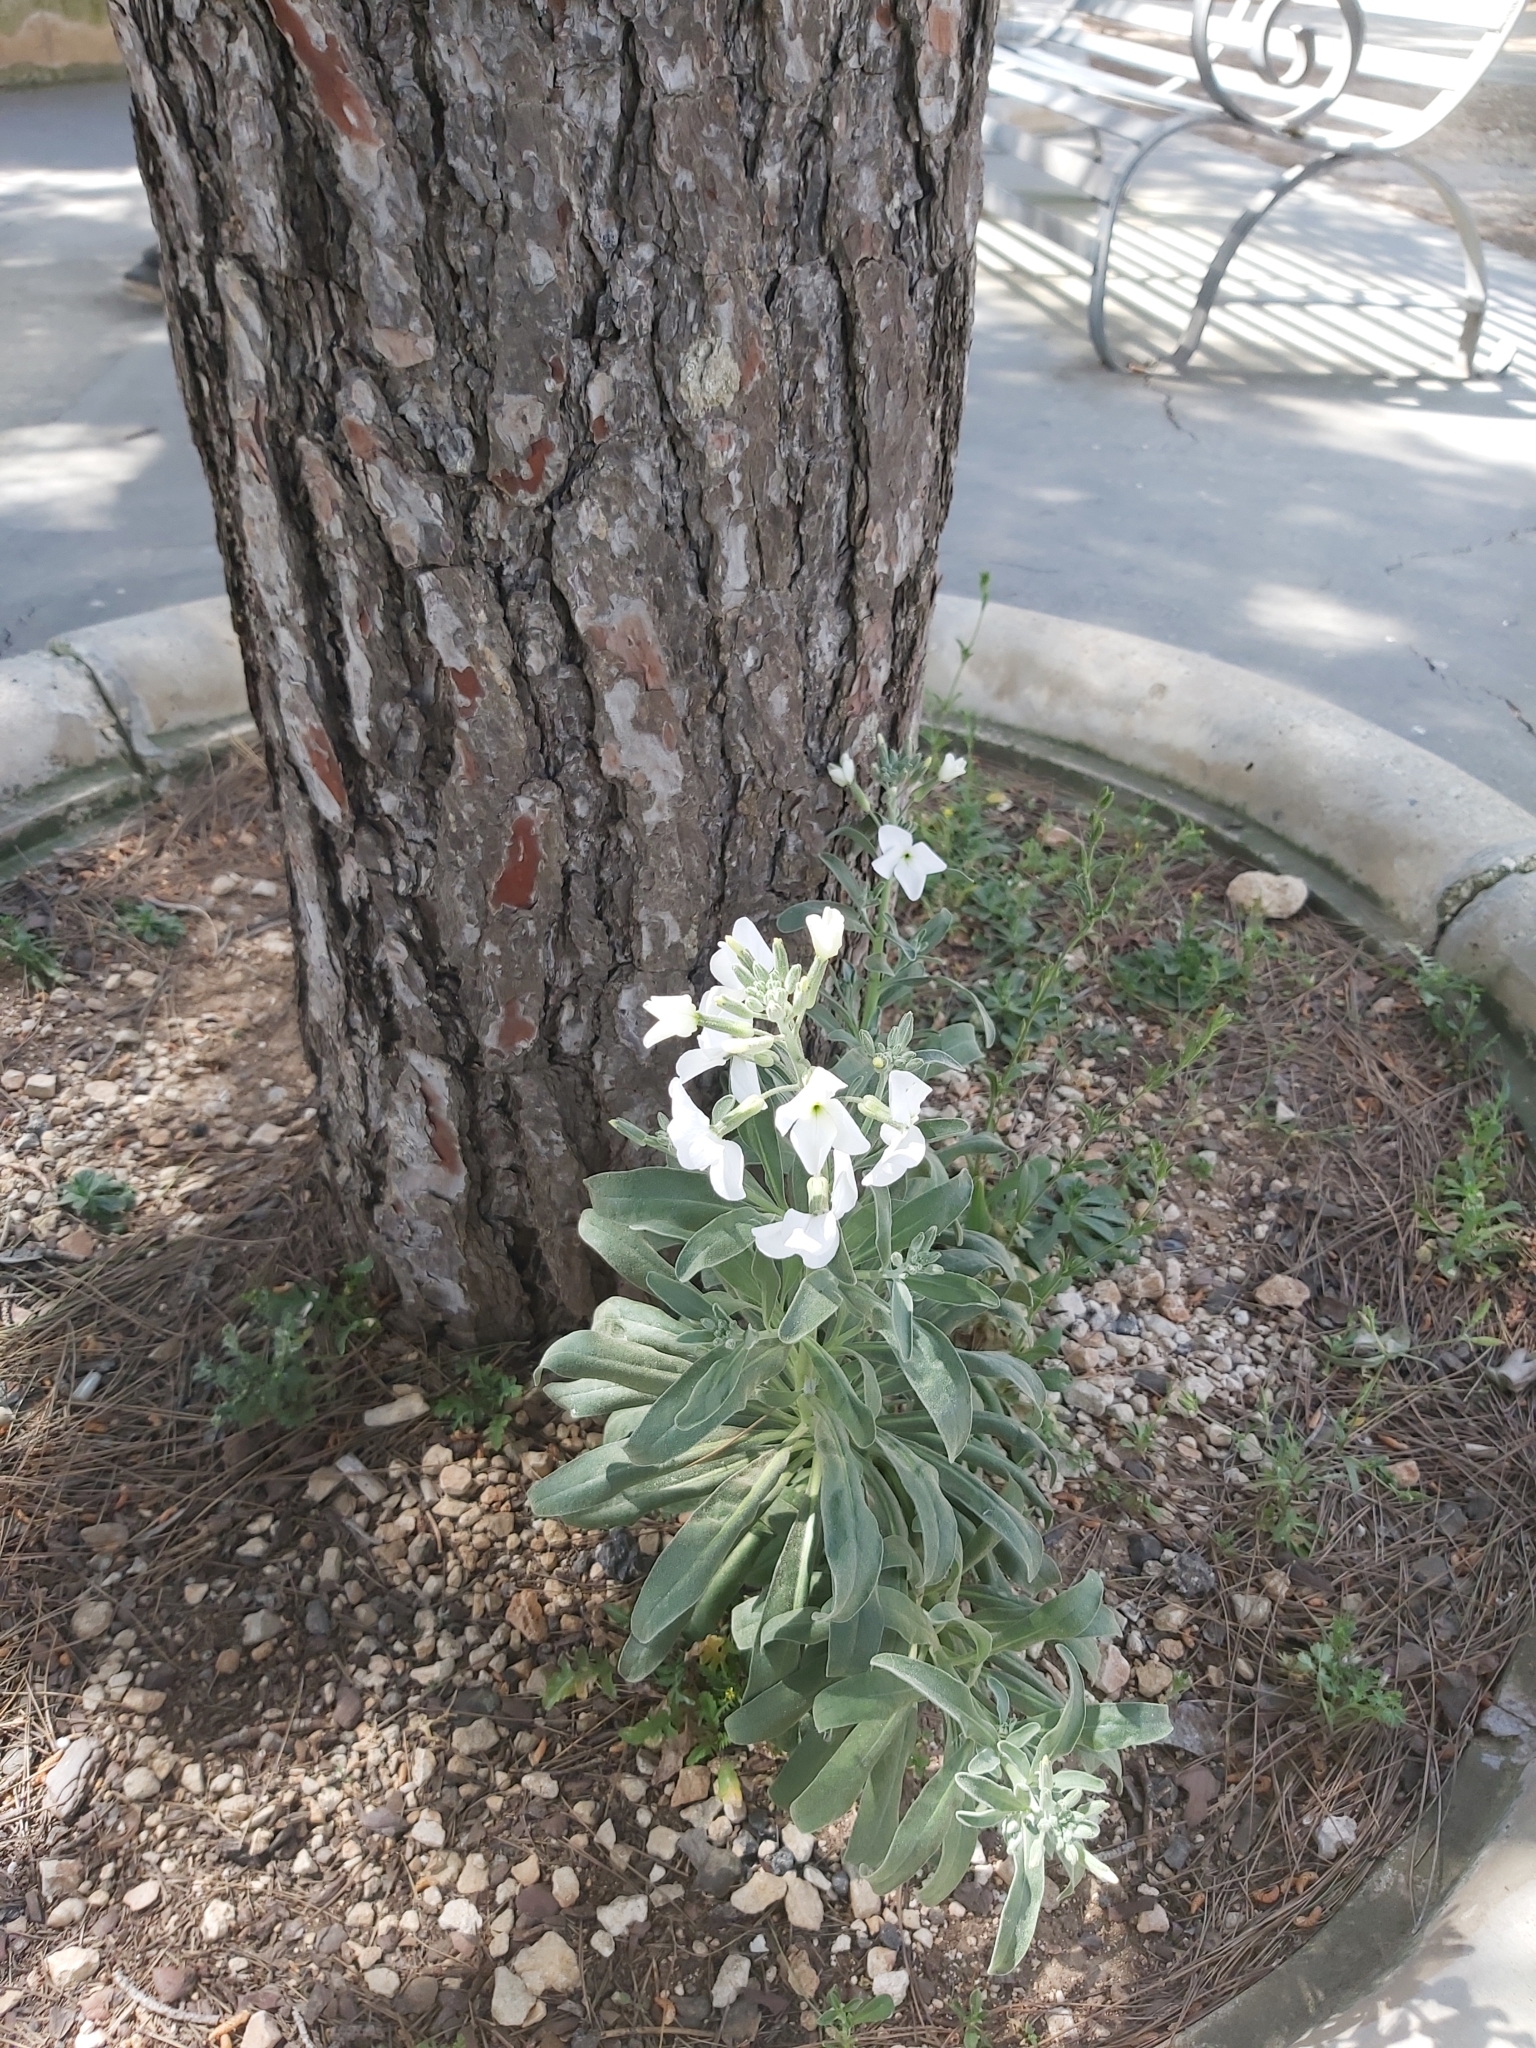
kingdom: Plantae
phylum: Tracheophyta
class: Magnoliopsida
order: Brassicales
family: Brassicaceae
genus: Matthiola
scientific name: Matthiola incana
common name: Hoary stock
